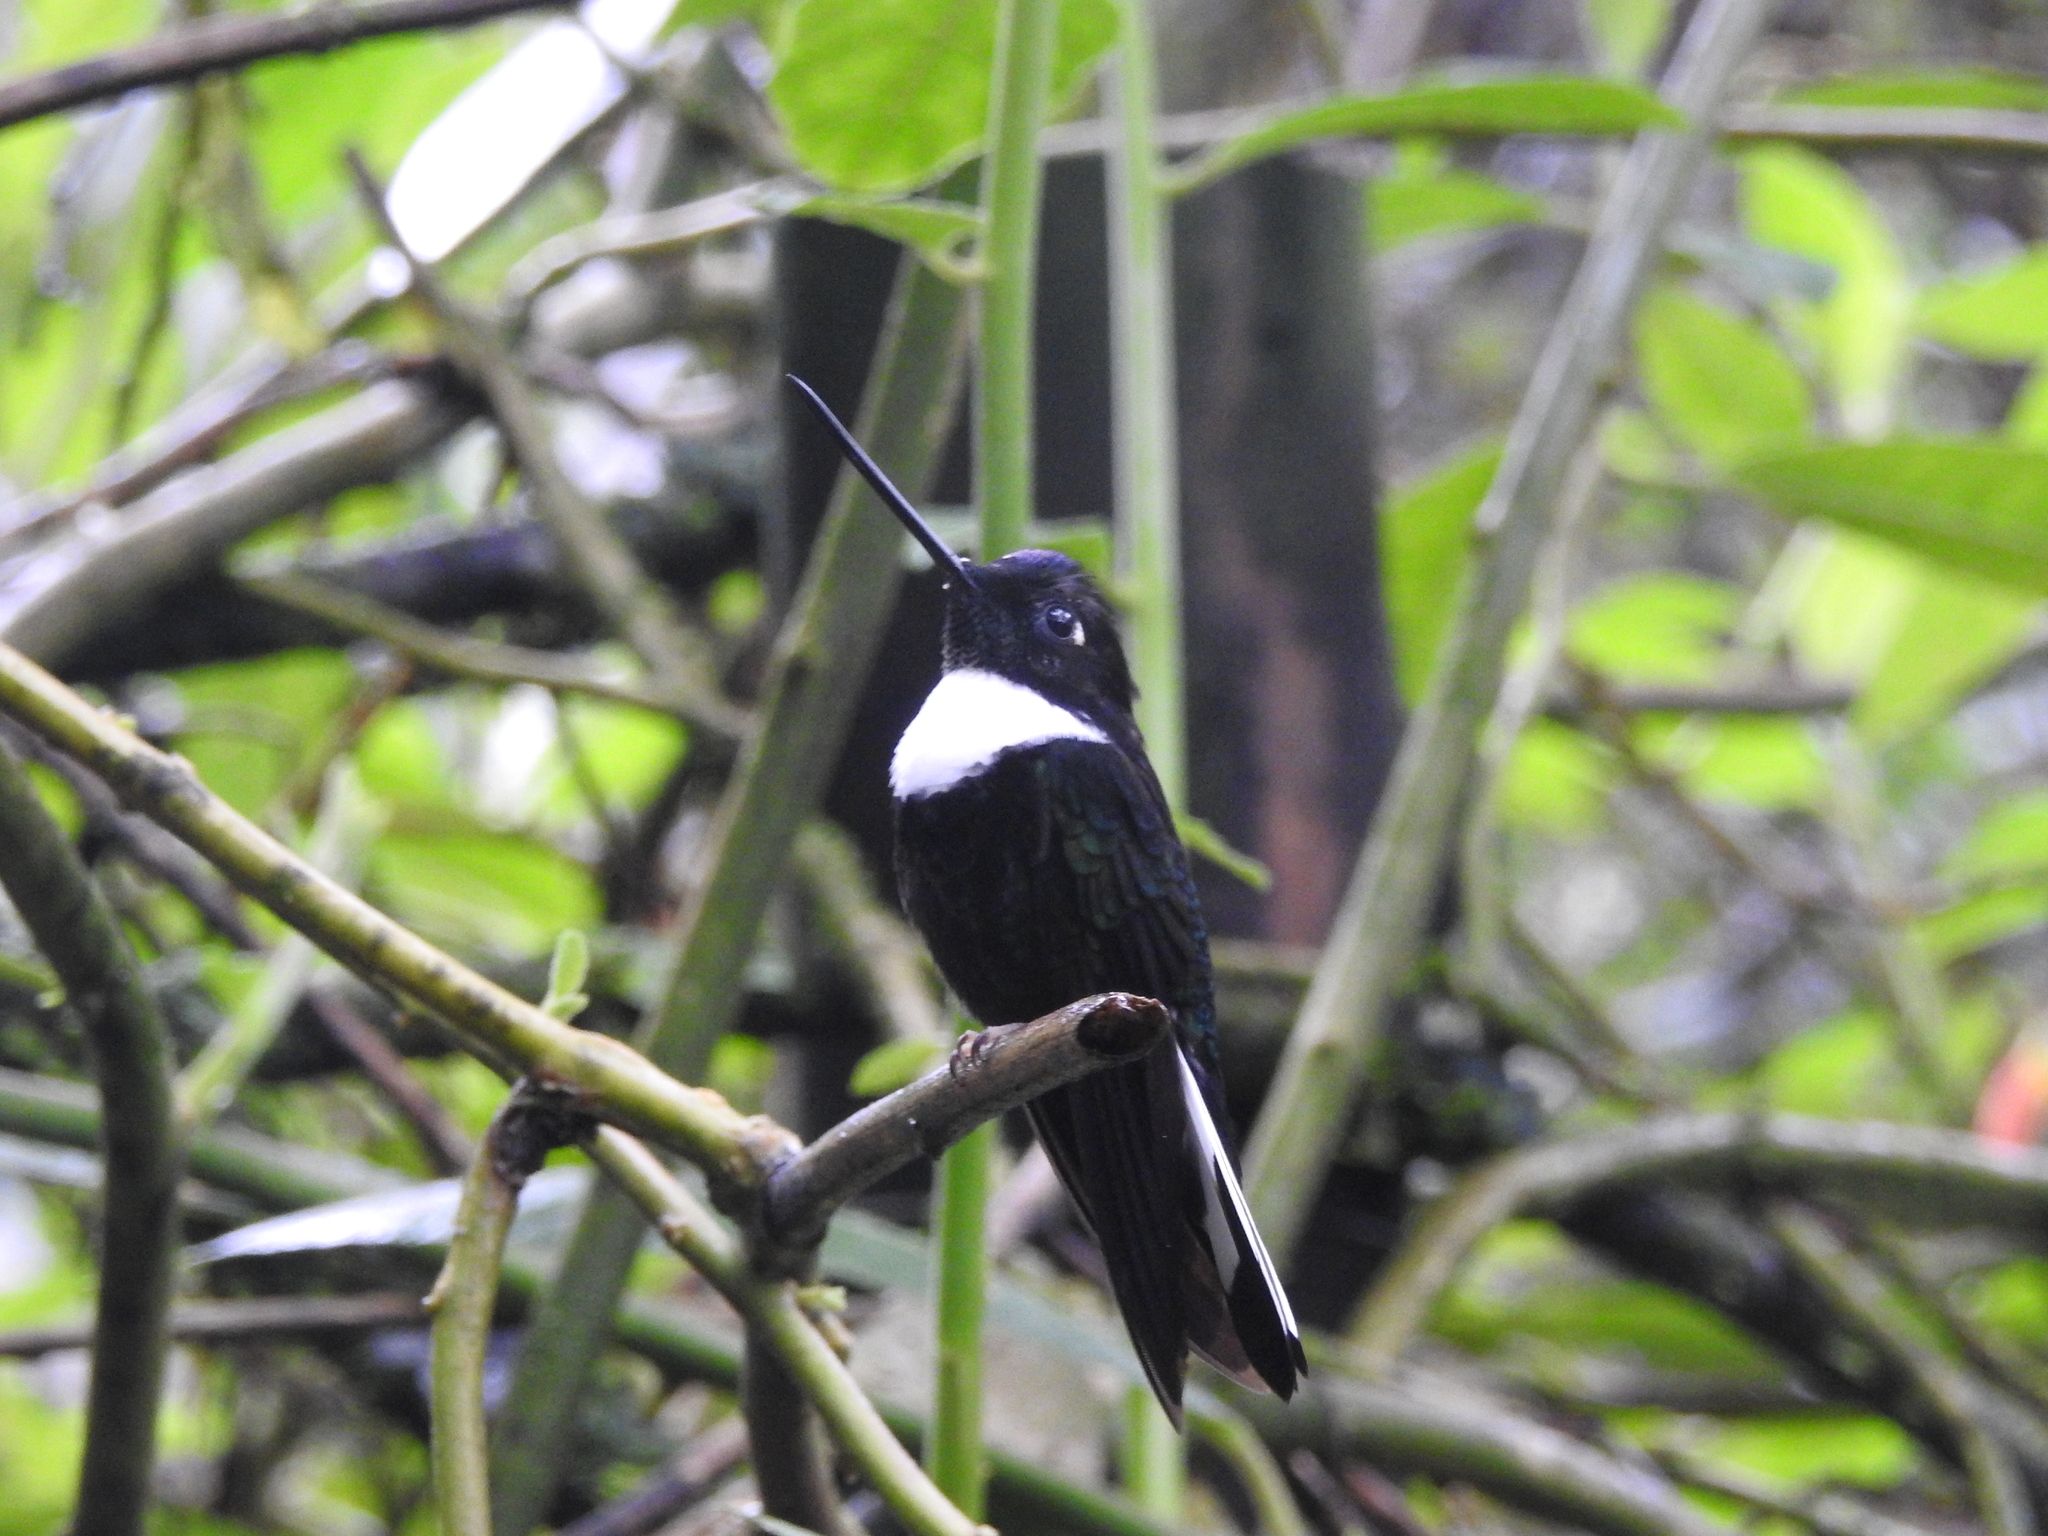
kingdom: Animalia
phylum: Chordata
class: Aves
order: Apodiformes
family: Trochilidae
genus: Coeligena
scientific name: Coeligena torquata
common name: Collared inca
